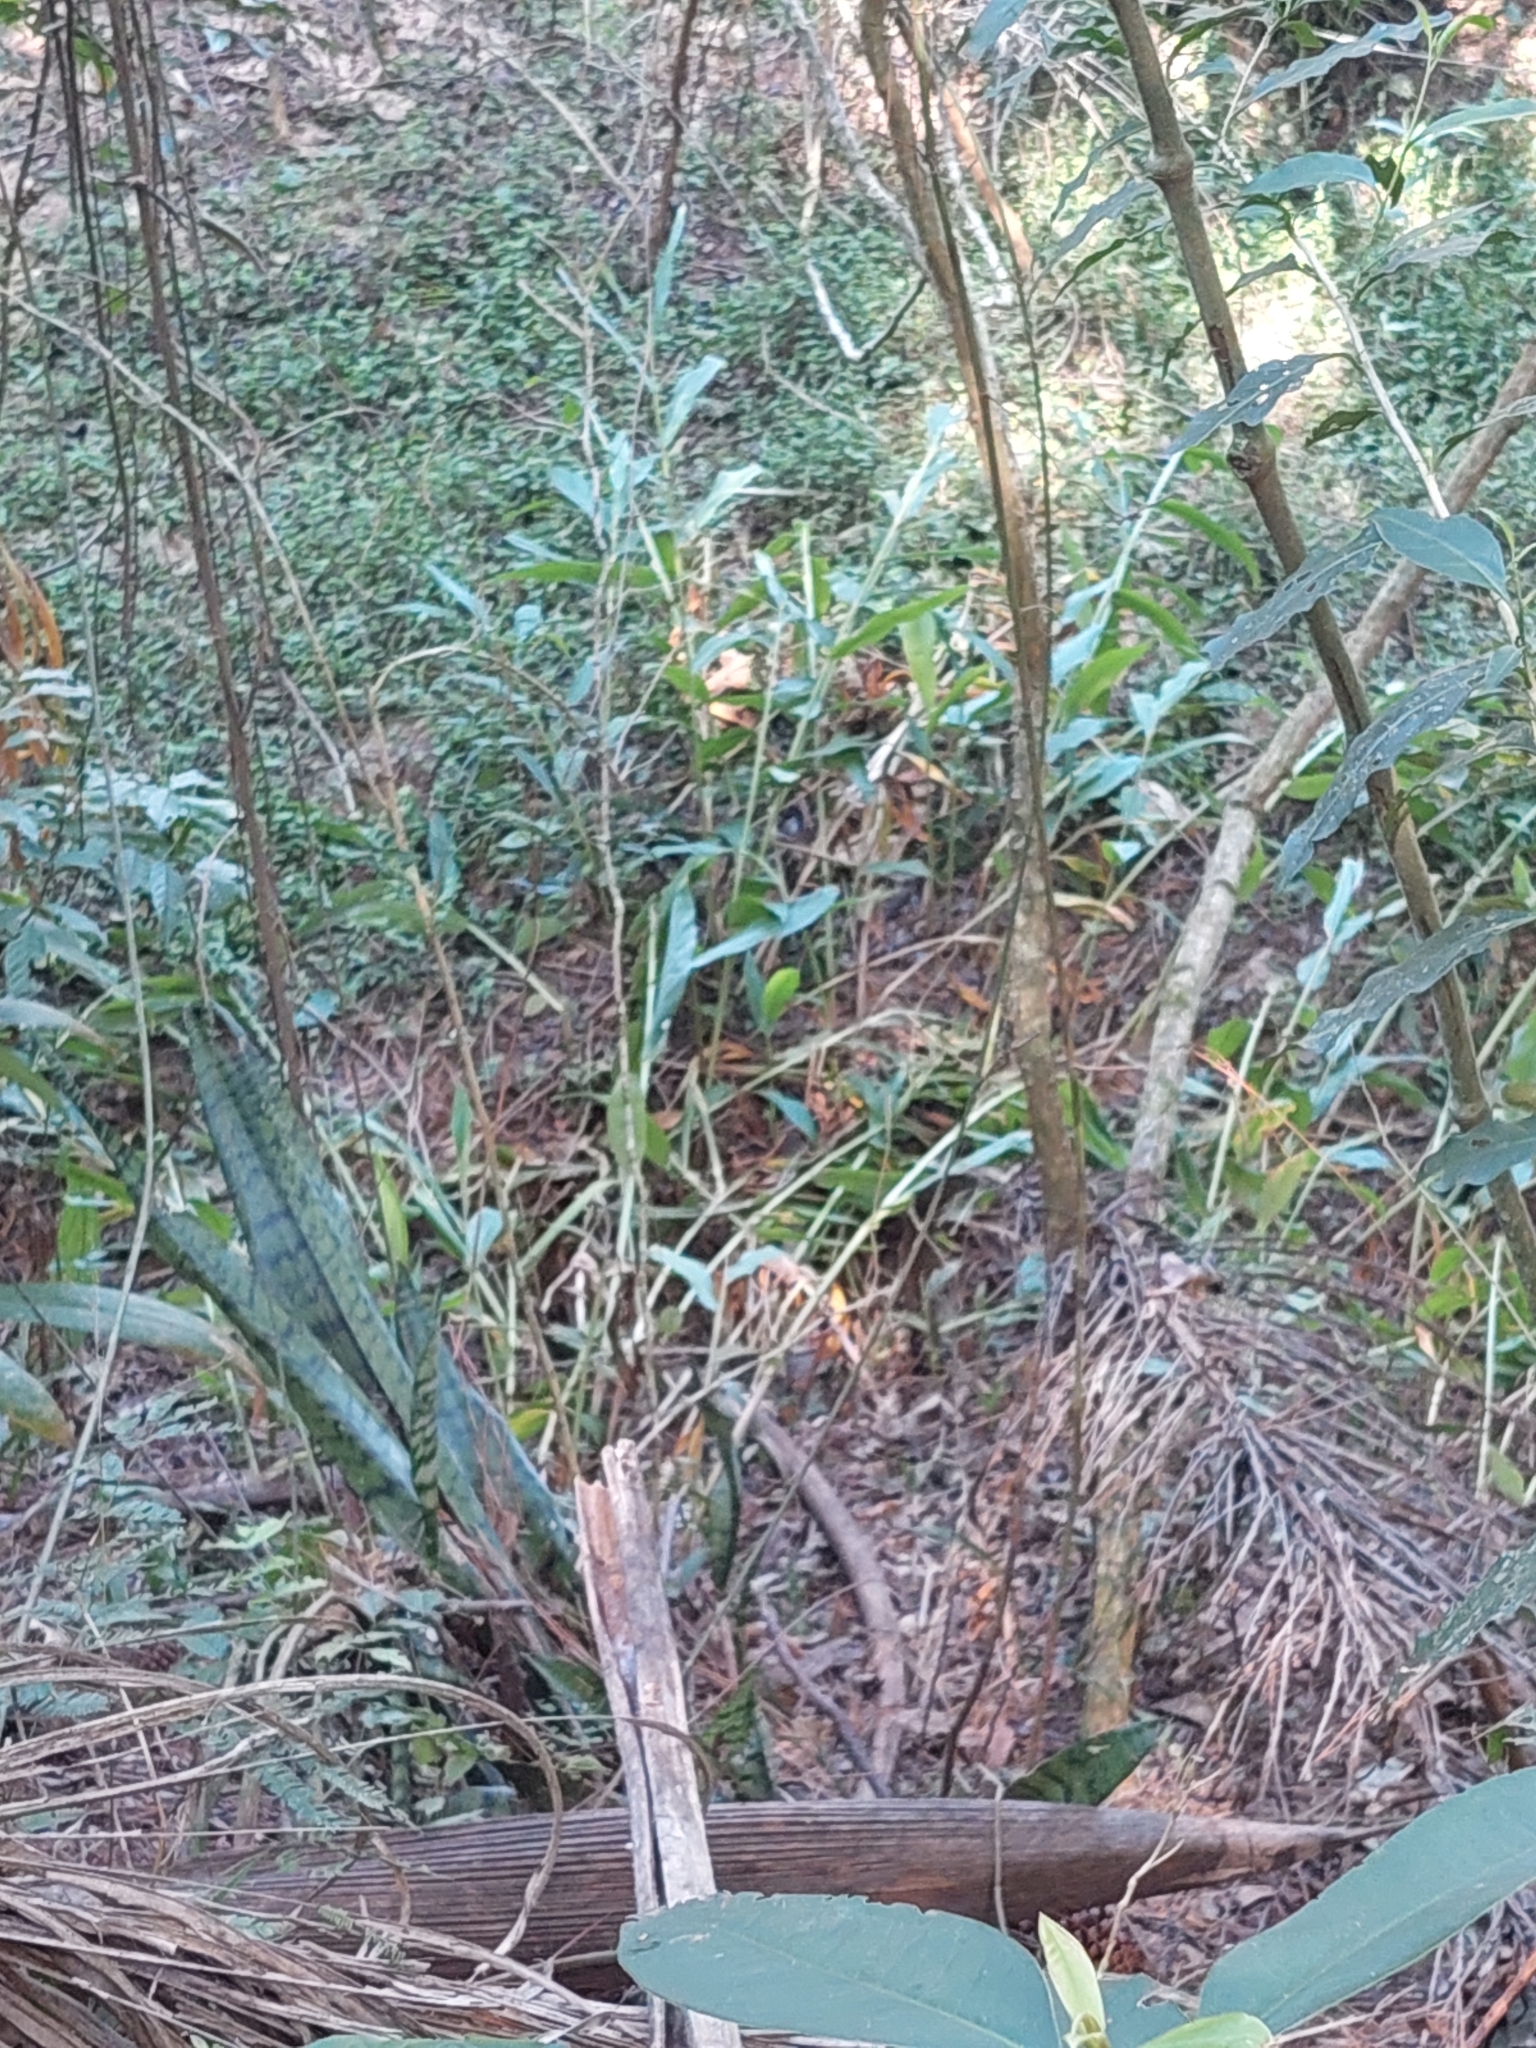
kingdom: Plantae
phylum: Tracheophyta
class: Liliopsida
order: Zingiberales
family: Zingiberaceae
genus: Hedychium
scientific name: Hedychium coronarium
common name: White garland-lily
